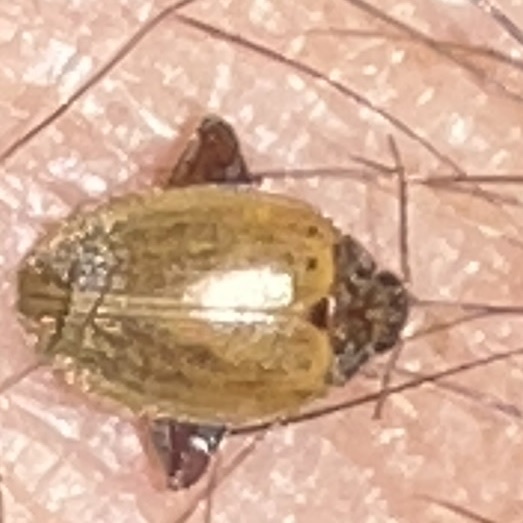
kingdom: Animalia
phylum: Arthropoda
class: Insecta
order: Coleoptera
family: Scirtidae
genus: Ora
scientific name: Ora discoidea
